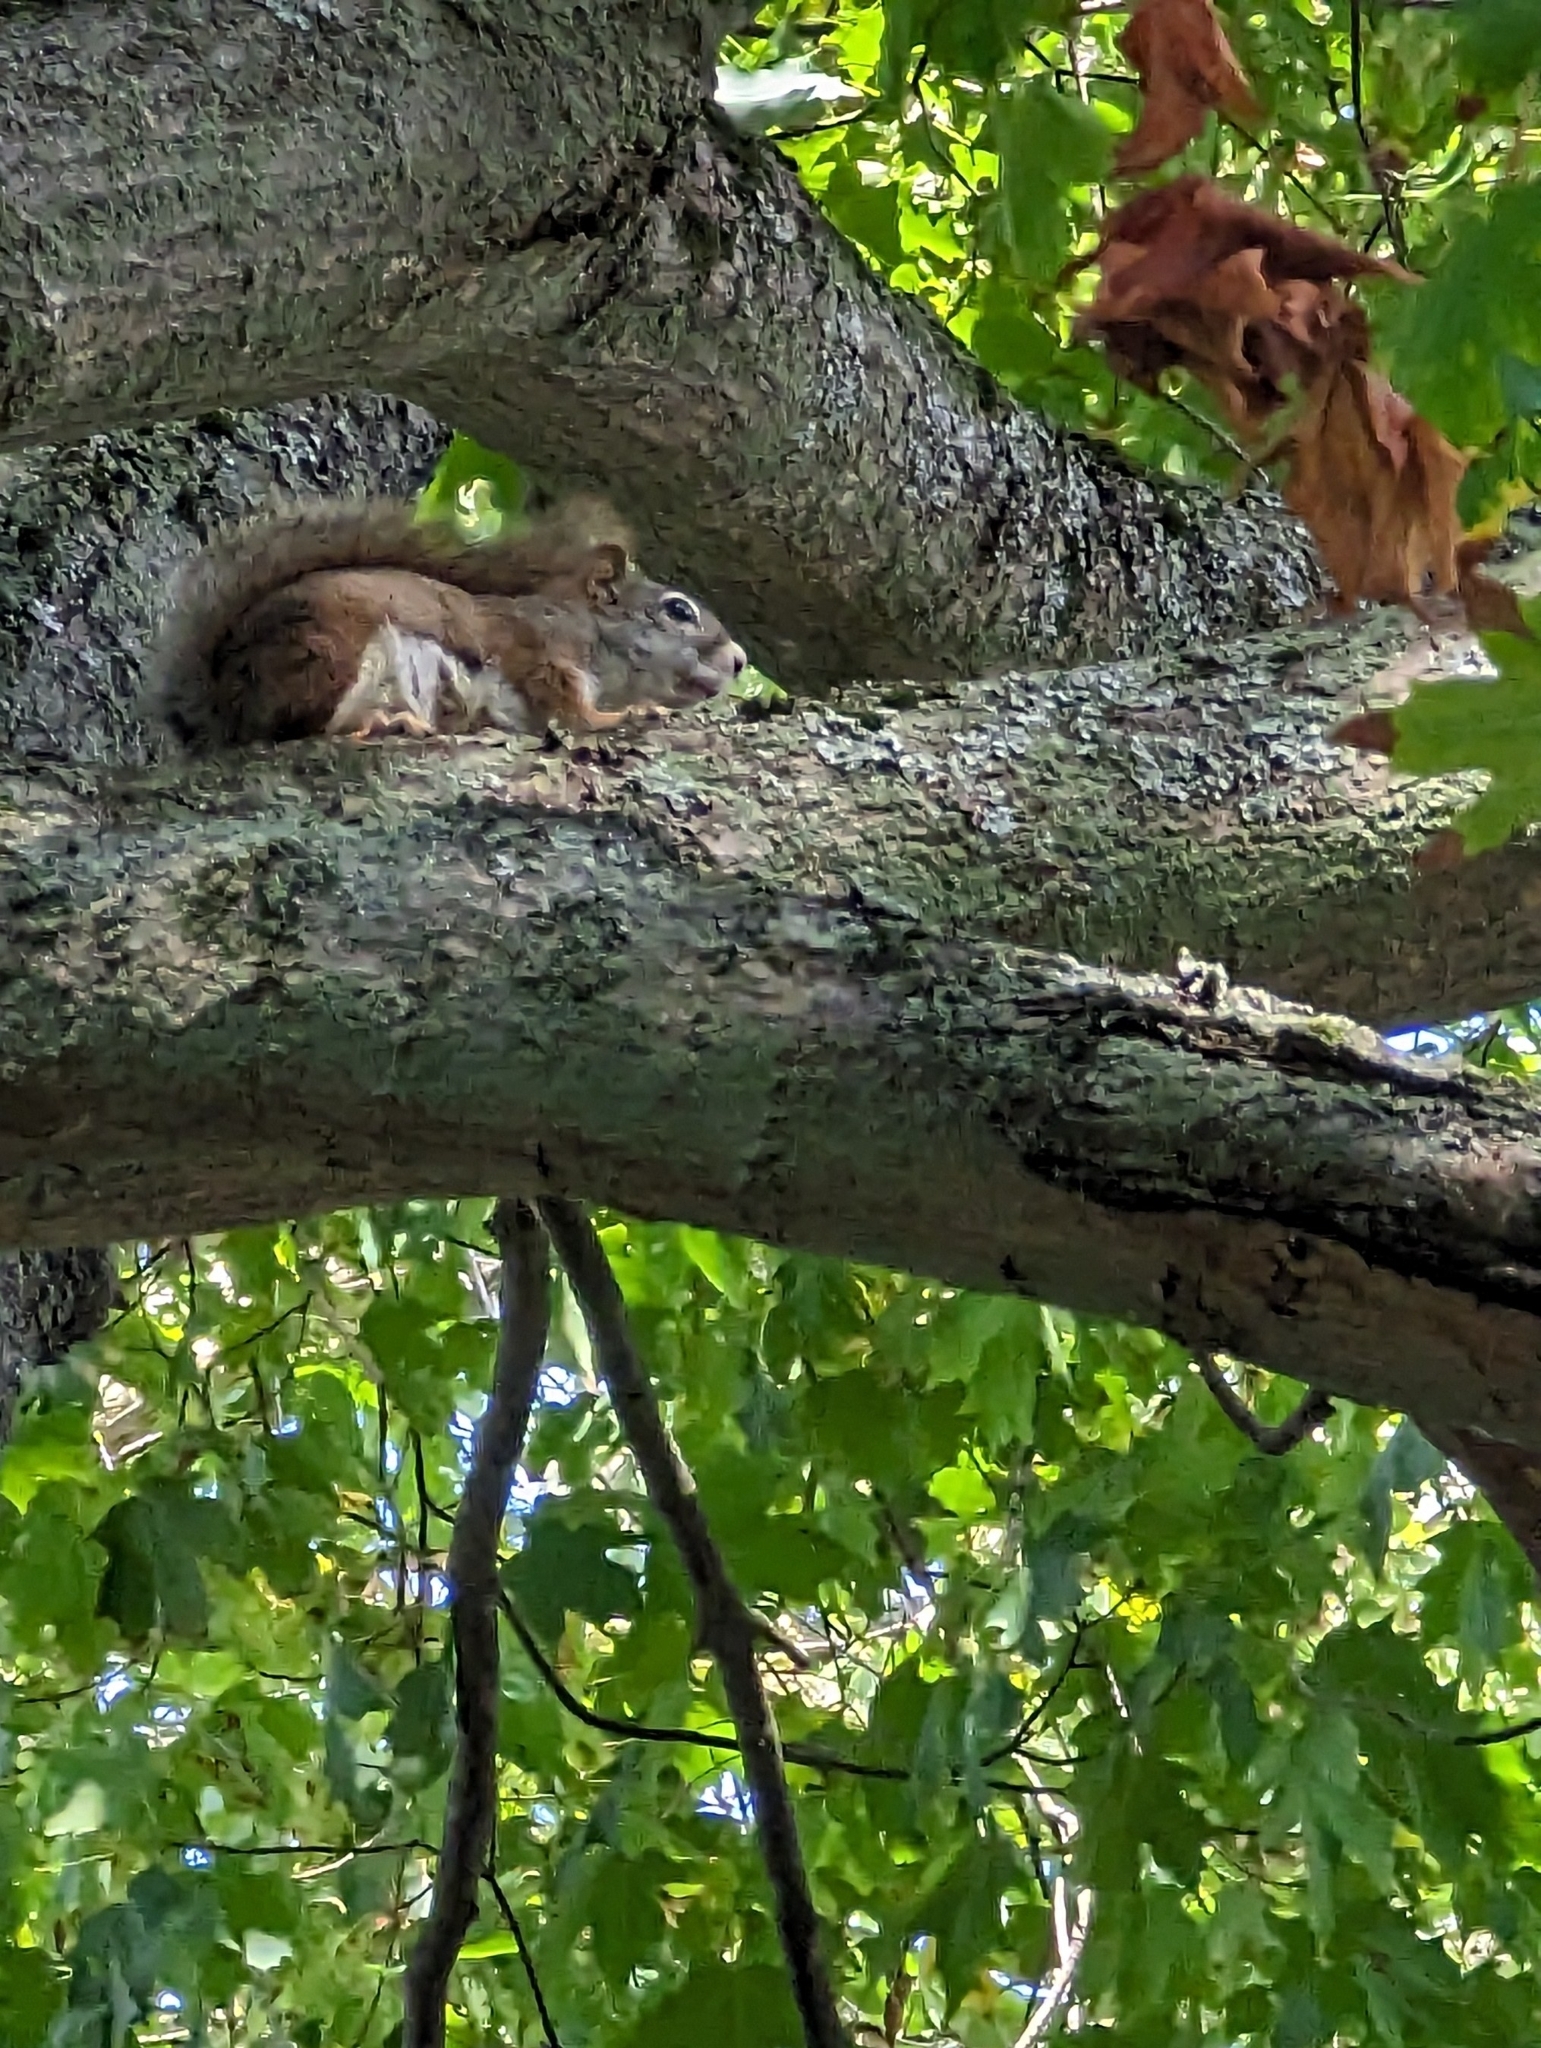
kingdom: Animalia
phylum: Chordata
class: Mammalia
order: Rodentia
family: Sciuridae
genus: Sciurus
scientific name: Sciurus carolinensis
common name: Eastern gray squirrel
